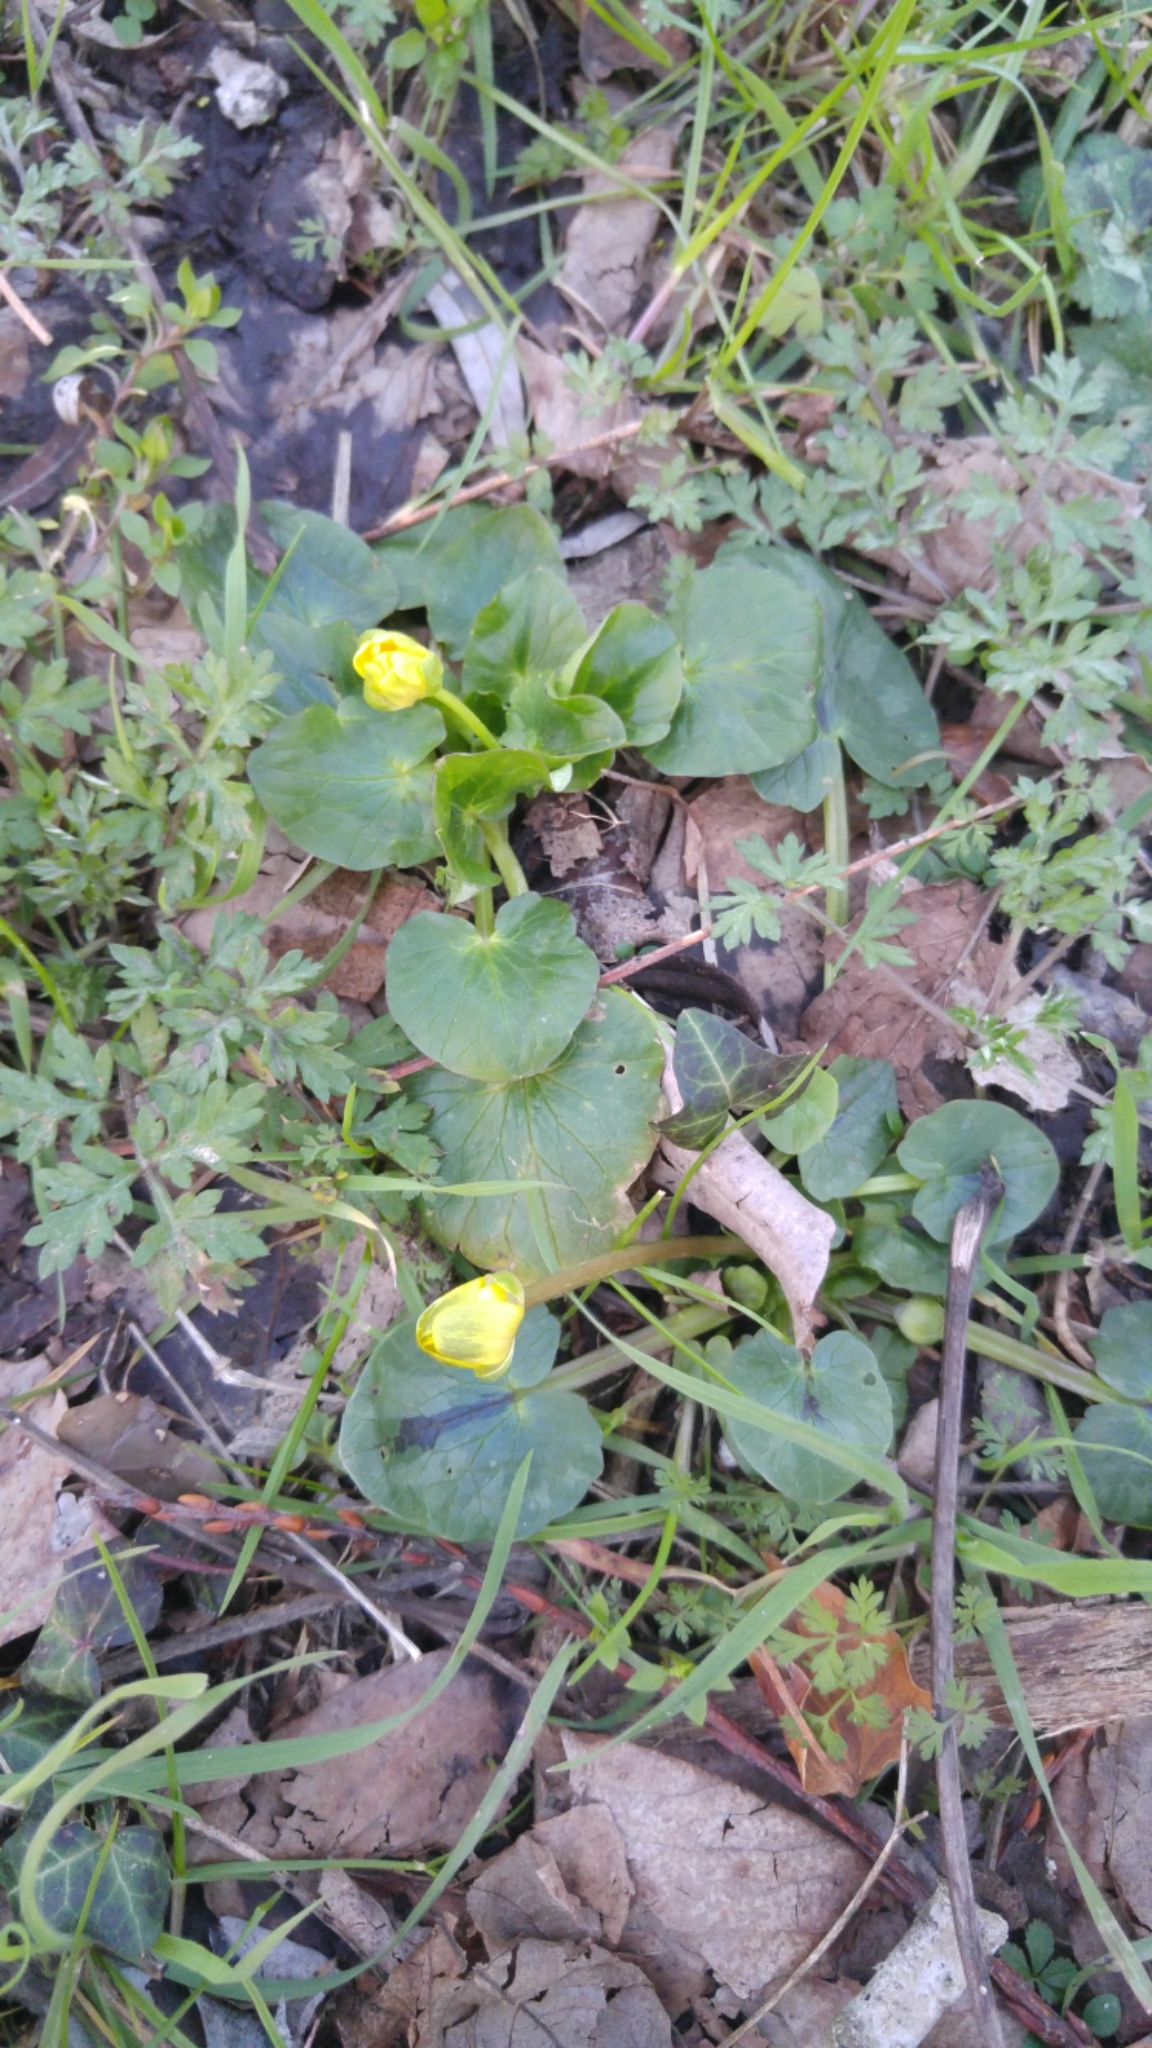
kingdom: Plantae
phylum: Tracheophyta
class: Magnoliopsida
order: Ranunculales
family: Ranunculaceae
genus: Ficaria
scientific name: Ficaria verna
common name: Lesser celandine
